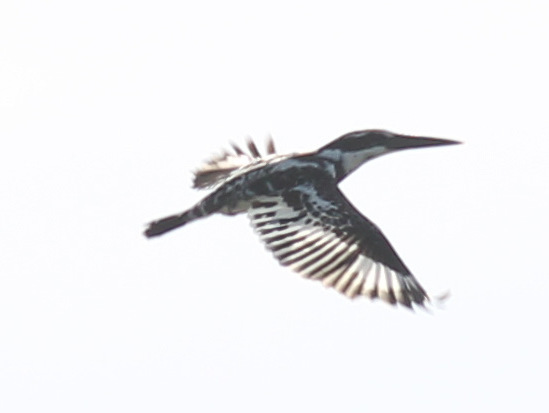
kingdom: Animalia
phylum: Chordata
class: Aves
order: Coraciiformes
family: Alcedinidae
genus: Ceryle
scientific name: Ceryle rudis
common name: Pied kingfisher
